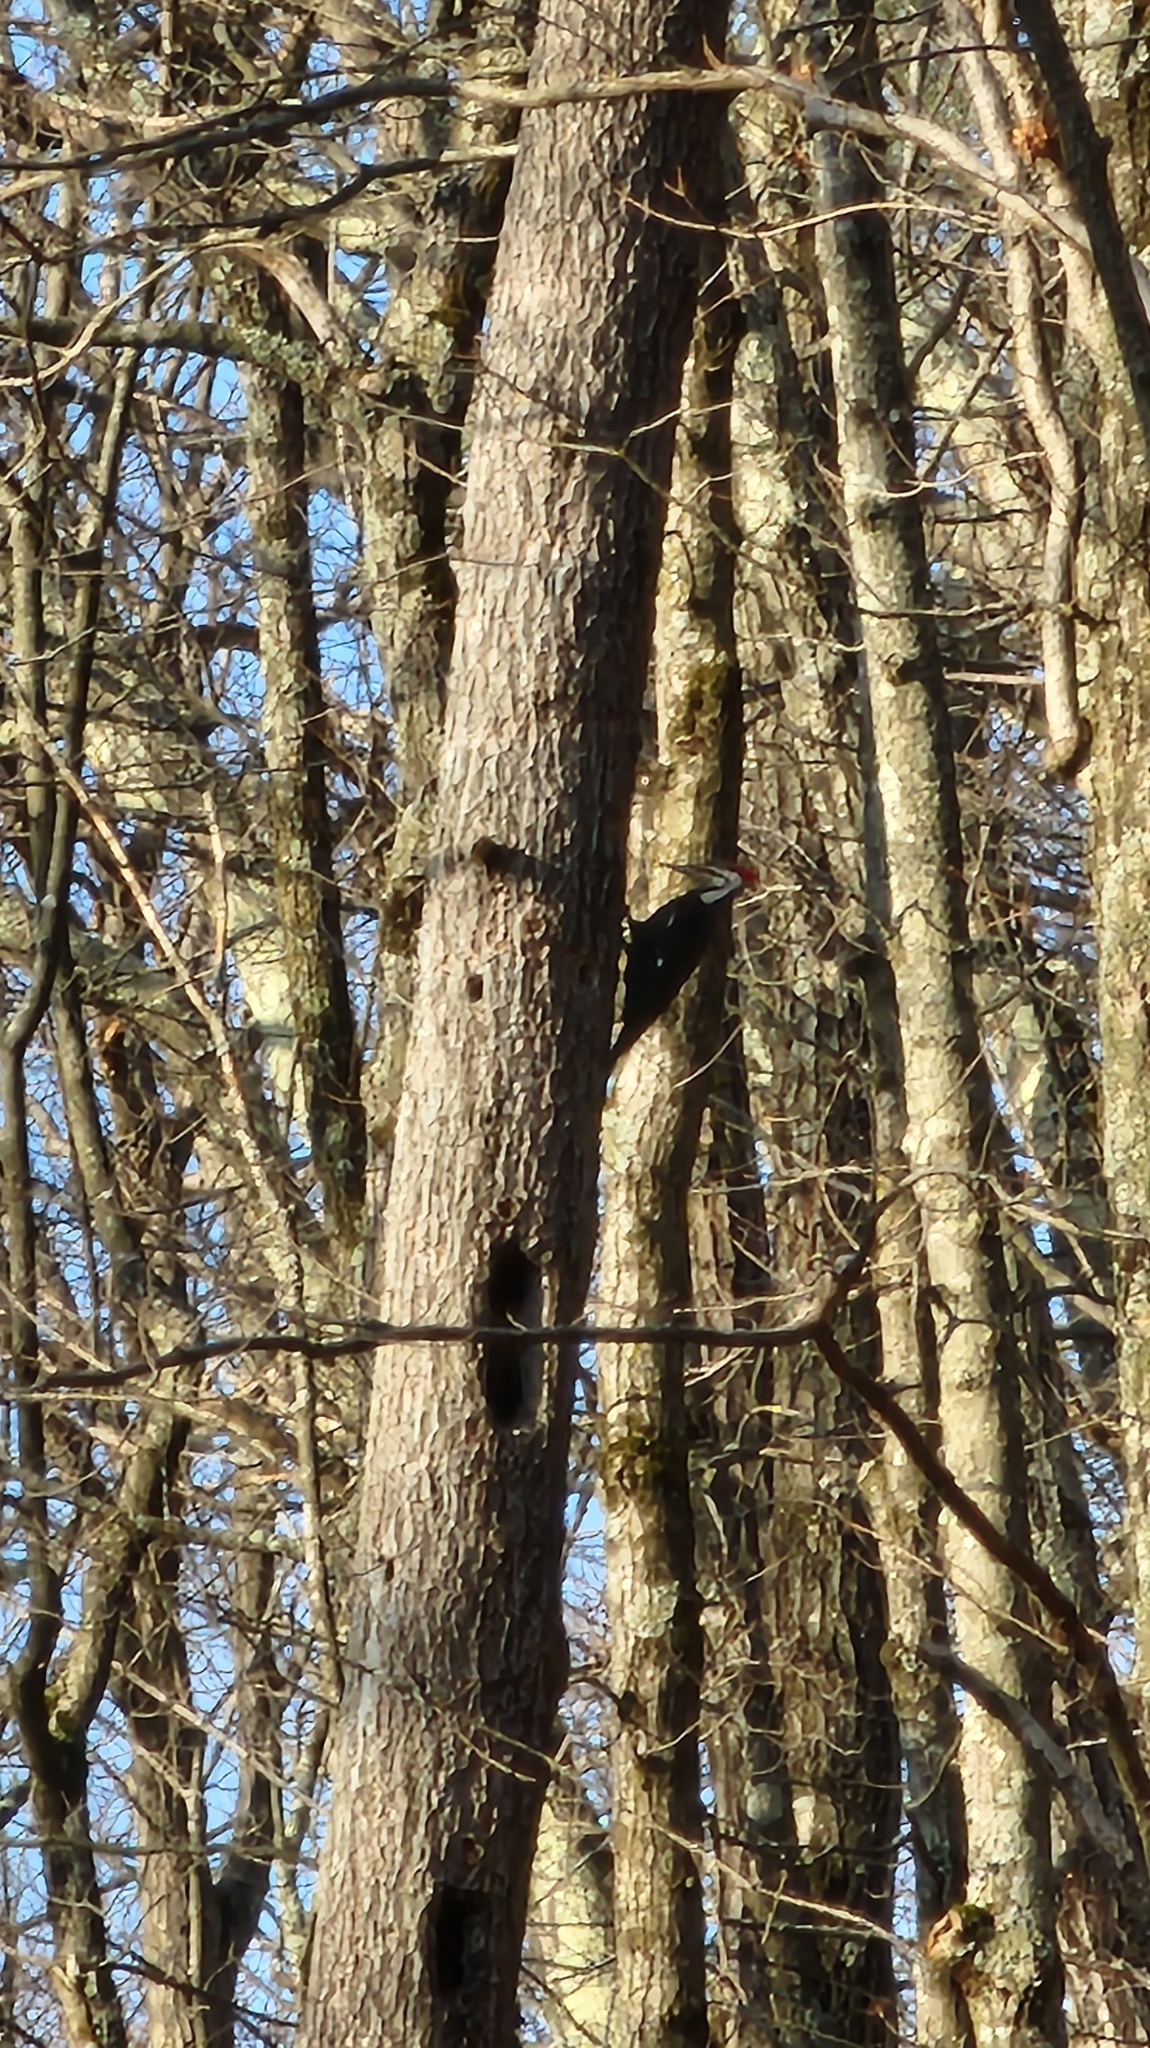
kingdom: Animalia
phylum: Chordata
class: Aves
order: Piciformes
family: Picidae
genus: Dryocopus
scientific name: Dryocopus pileatus
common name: Pileated woodpecker
